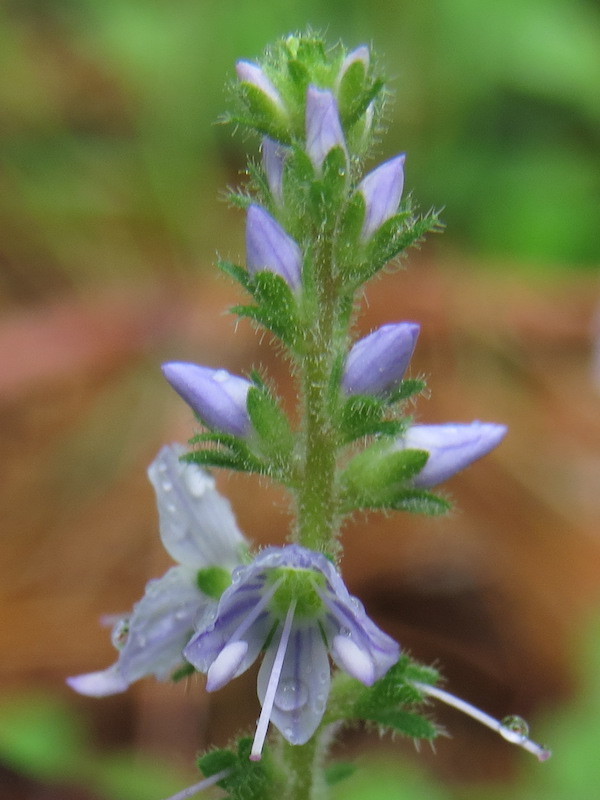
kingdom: Plantae
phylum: Tracheophyta
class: Magnoliopsida
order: Lamiales
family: Plantaginaceae
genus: Veronica
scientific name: Veronica officinalis
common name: Common speedwell
